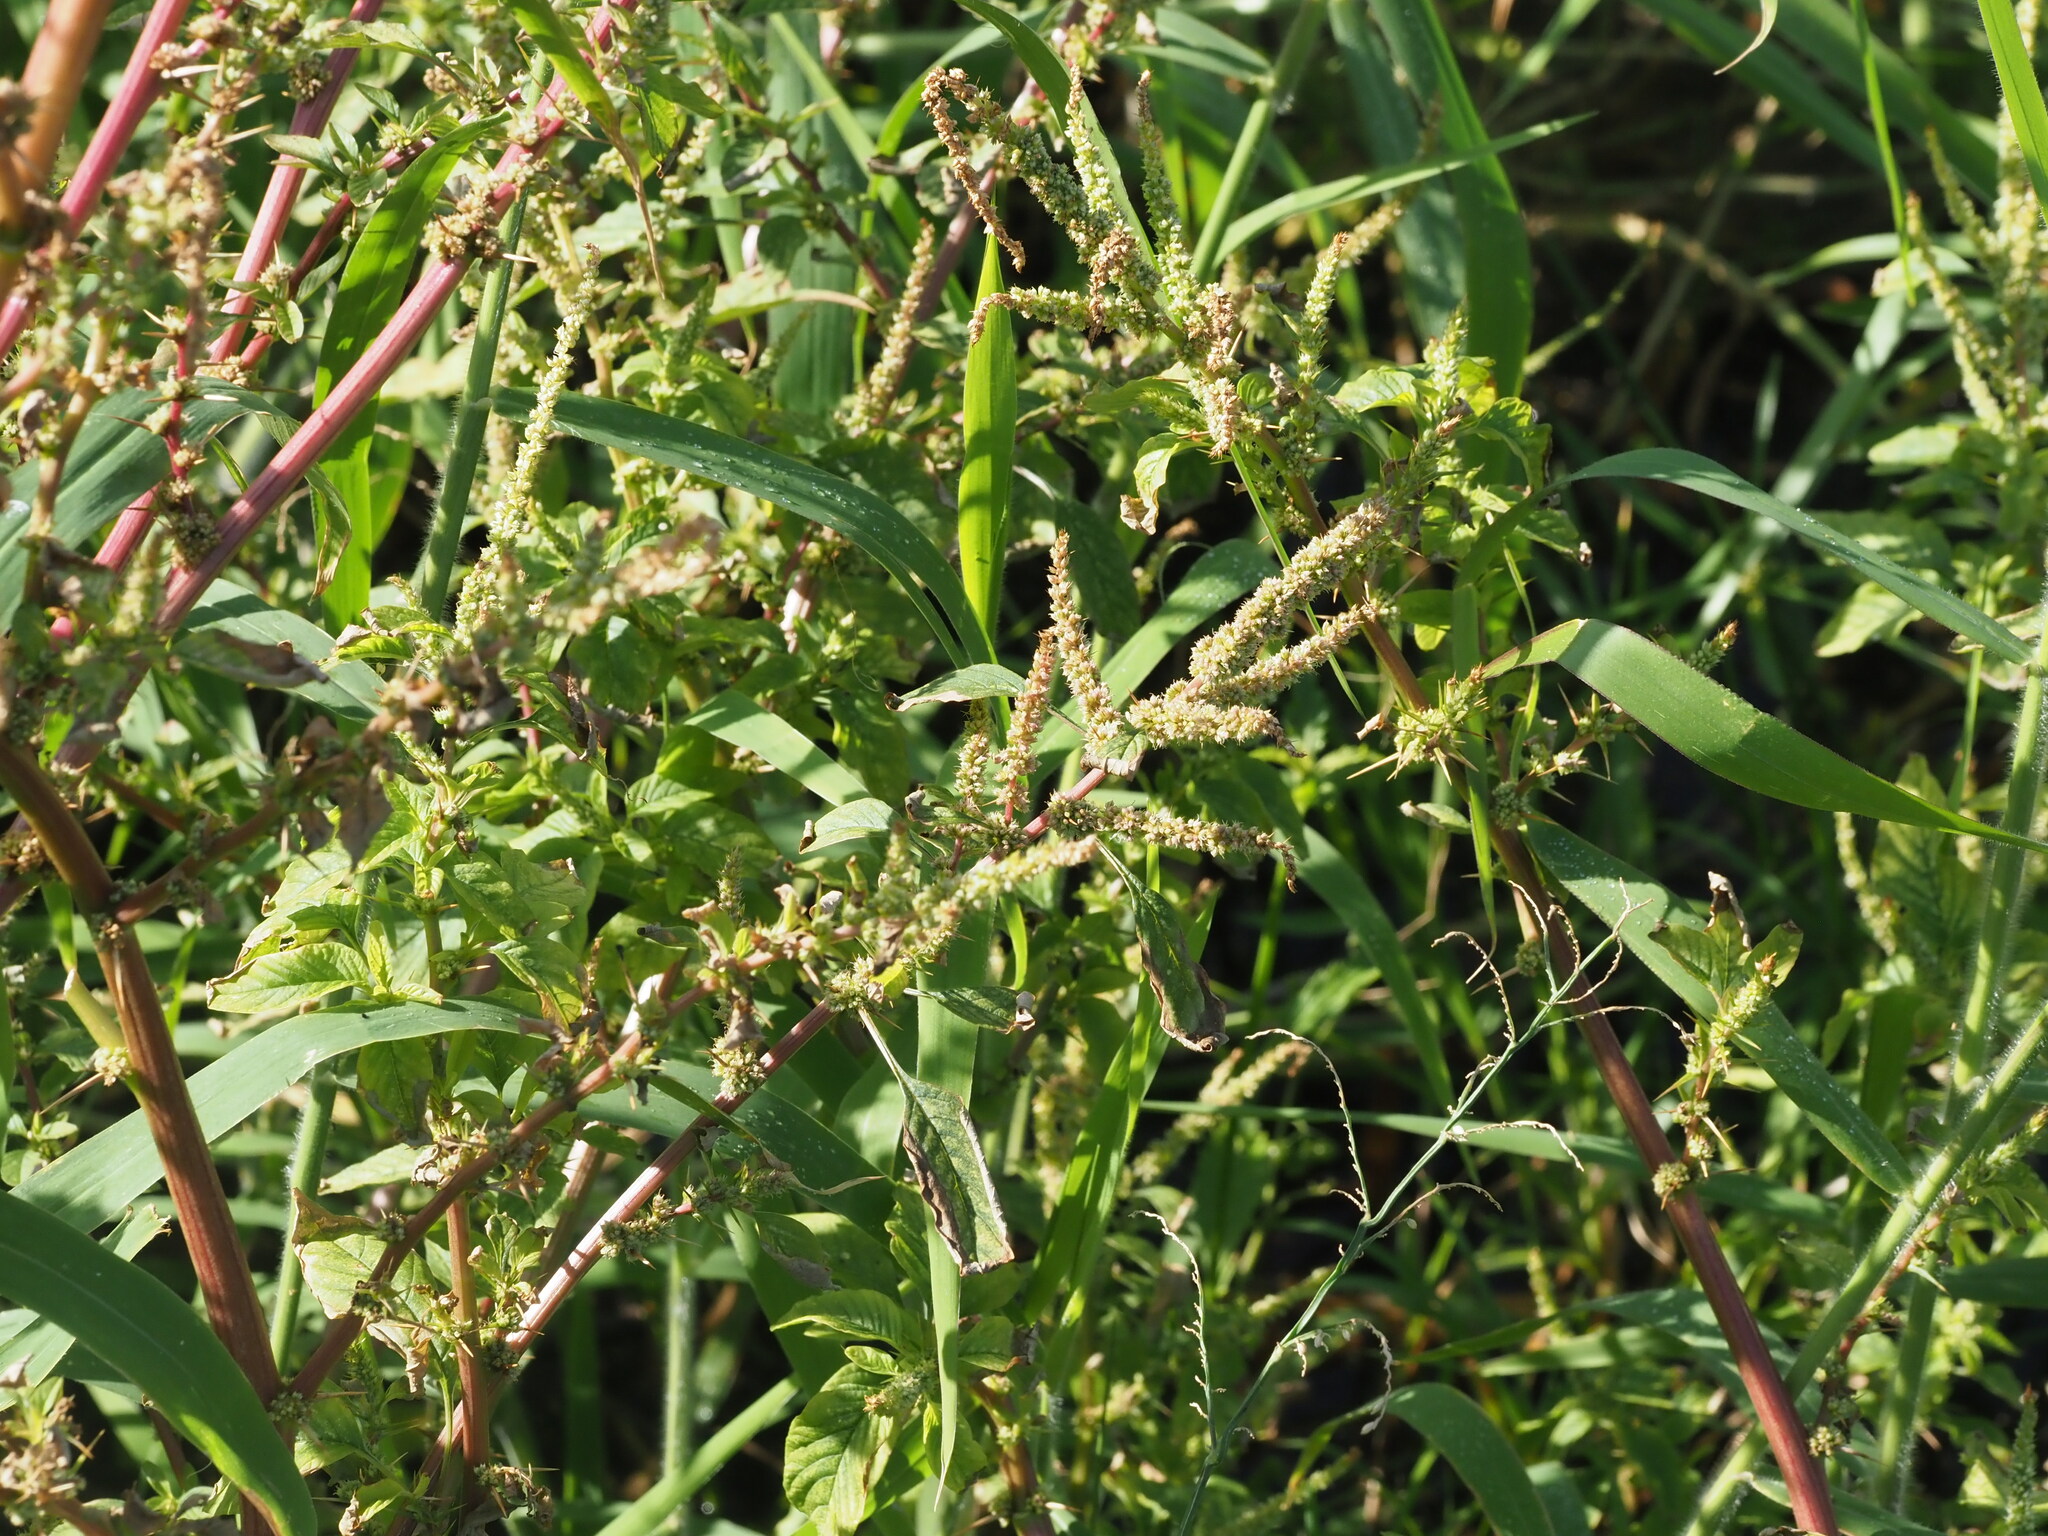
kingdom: Plantae
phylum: Tracheophyta
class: Magnoliopsida
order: Caryophyllales
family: Amaranthaceae
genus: Amaranthus
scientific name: Amaranthus spinosus
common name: Spiny amaranth
